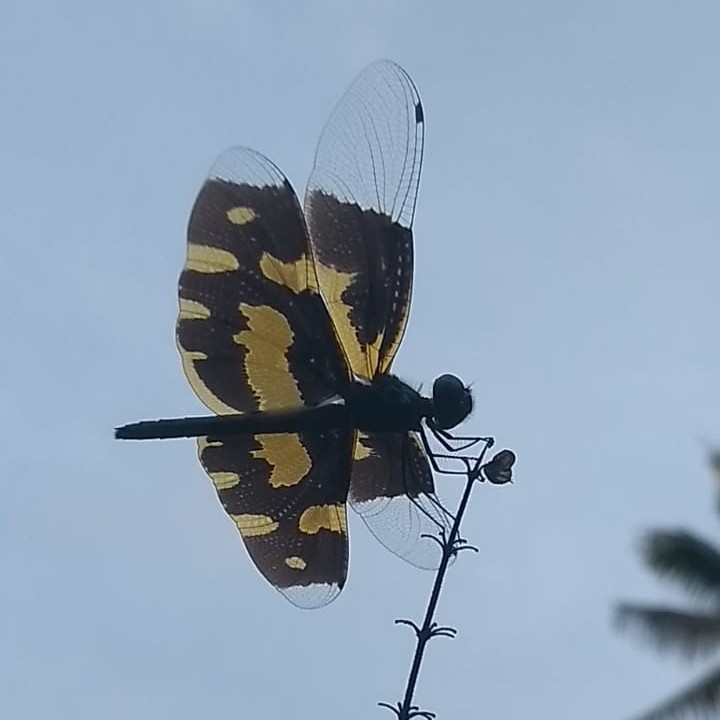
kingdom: Animalia
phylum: Arthropoda
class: Insecta
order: Odonata
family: Libellulidae
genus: Rhyothemis
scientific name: Rhyothemis variegata
